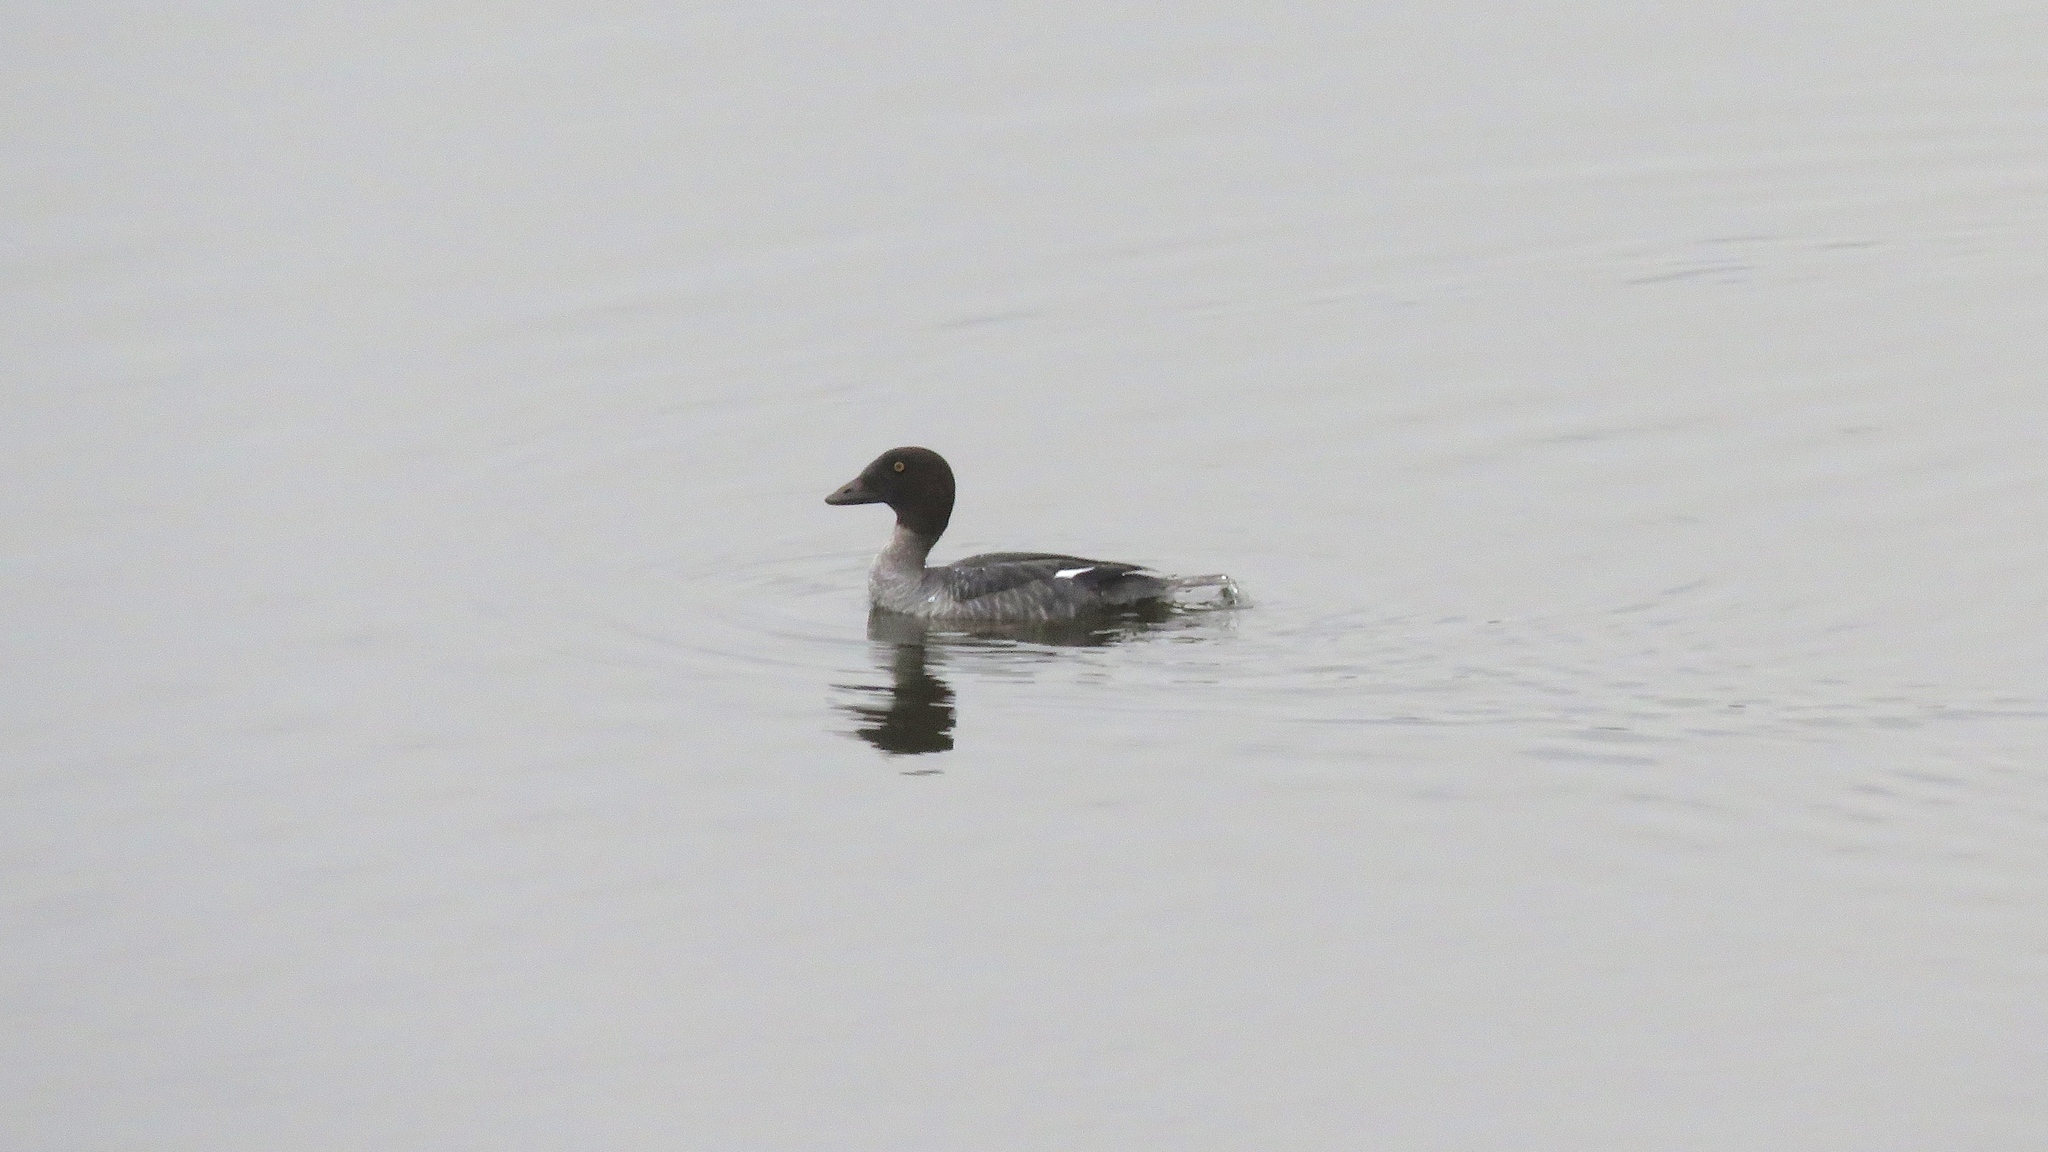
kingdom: Animalia
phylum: Chordata
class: Aves
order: Anseriformes
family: Anatidae
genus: Bucephala
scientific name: Bucephala clangula
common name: Common goldeneye
